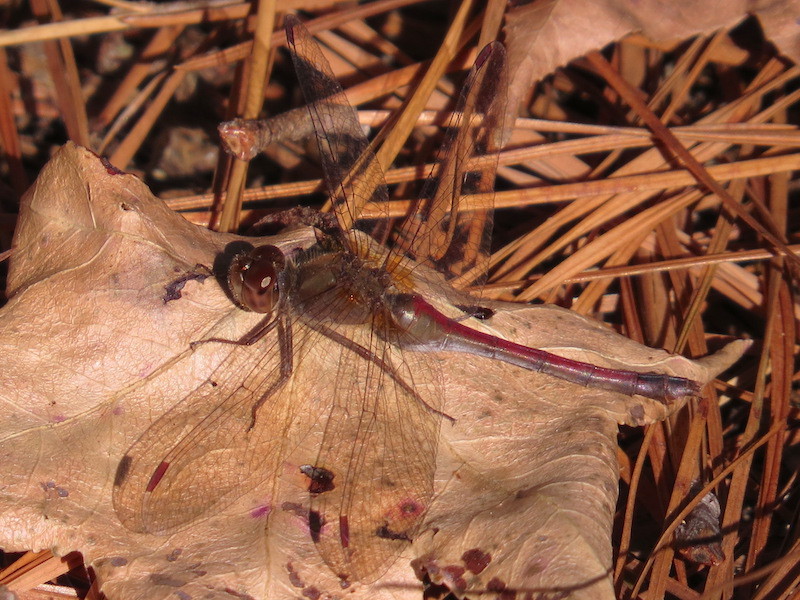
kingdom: Animalia
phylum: Arthropoda
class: Insecta
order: Odonata
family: Libellulidae
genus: Sympetrum
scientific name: Sympetrum vicinum
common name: Autumn meadowhawk
